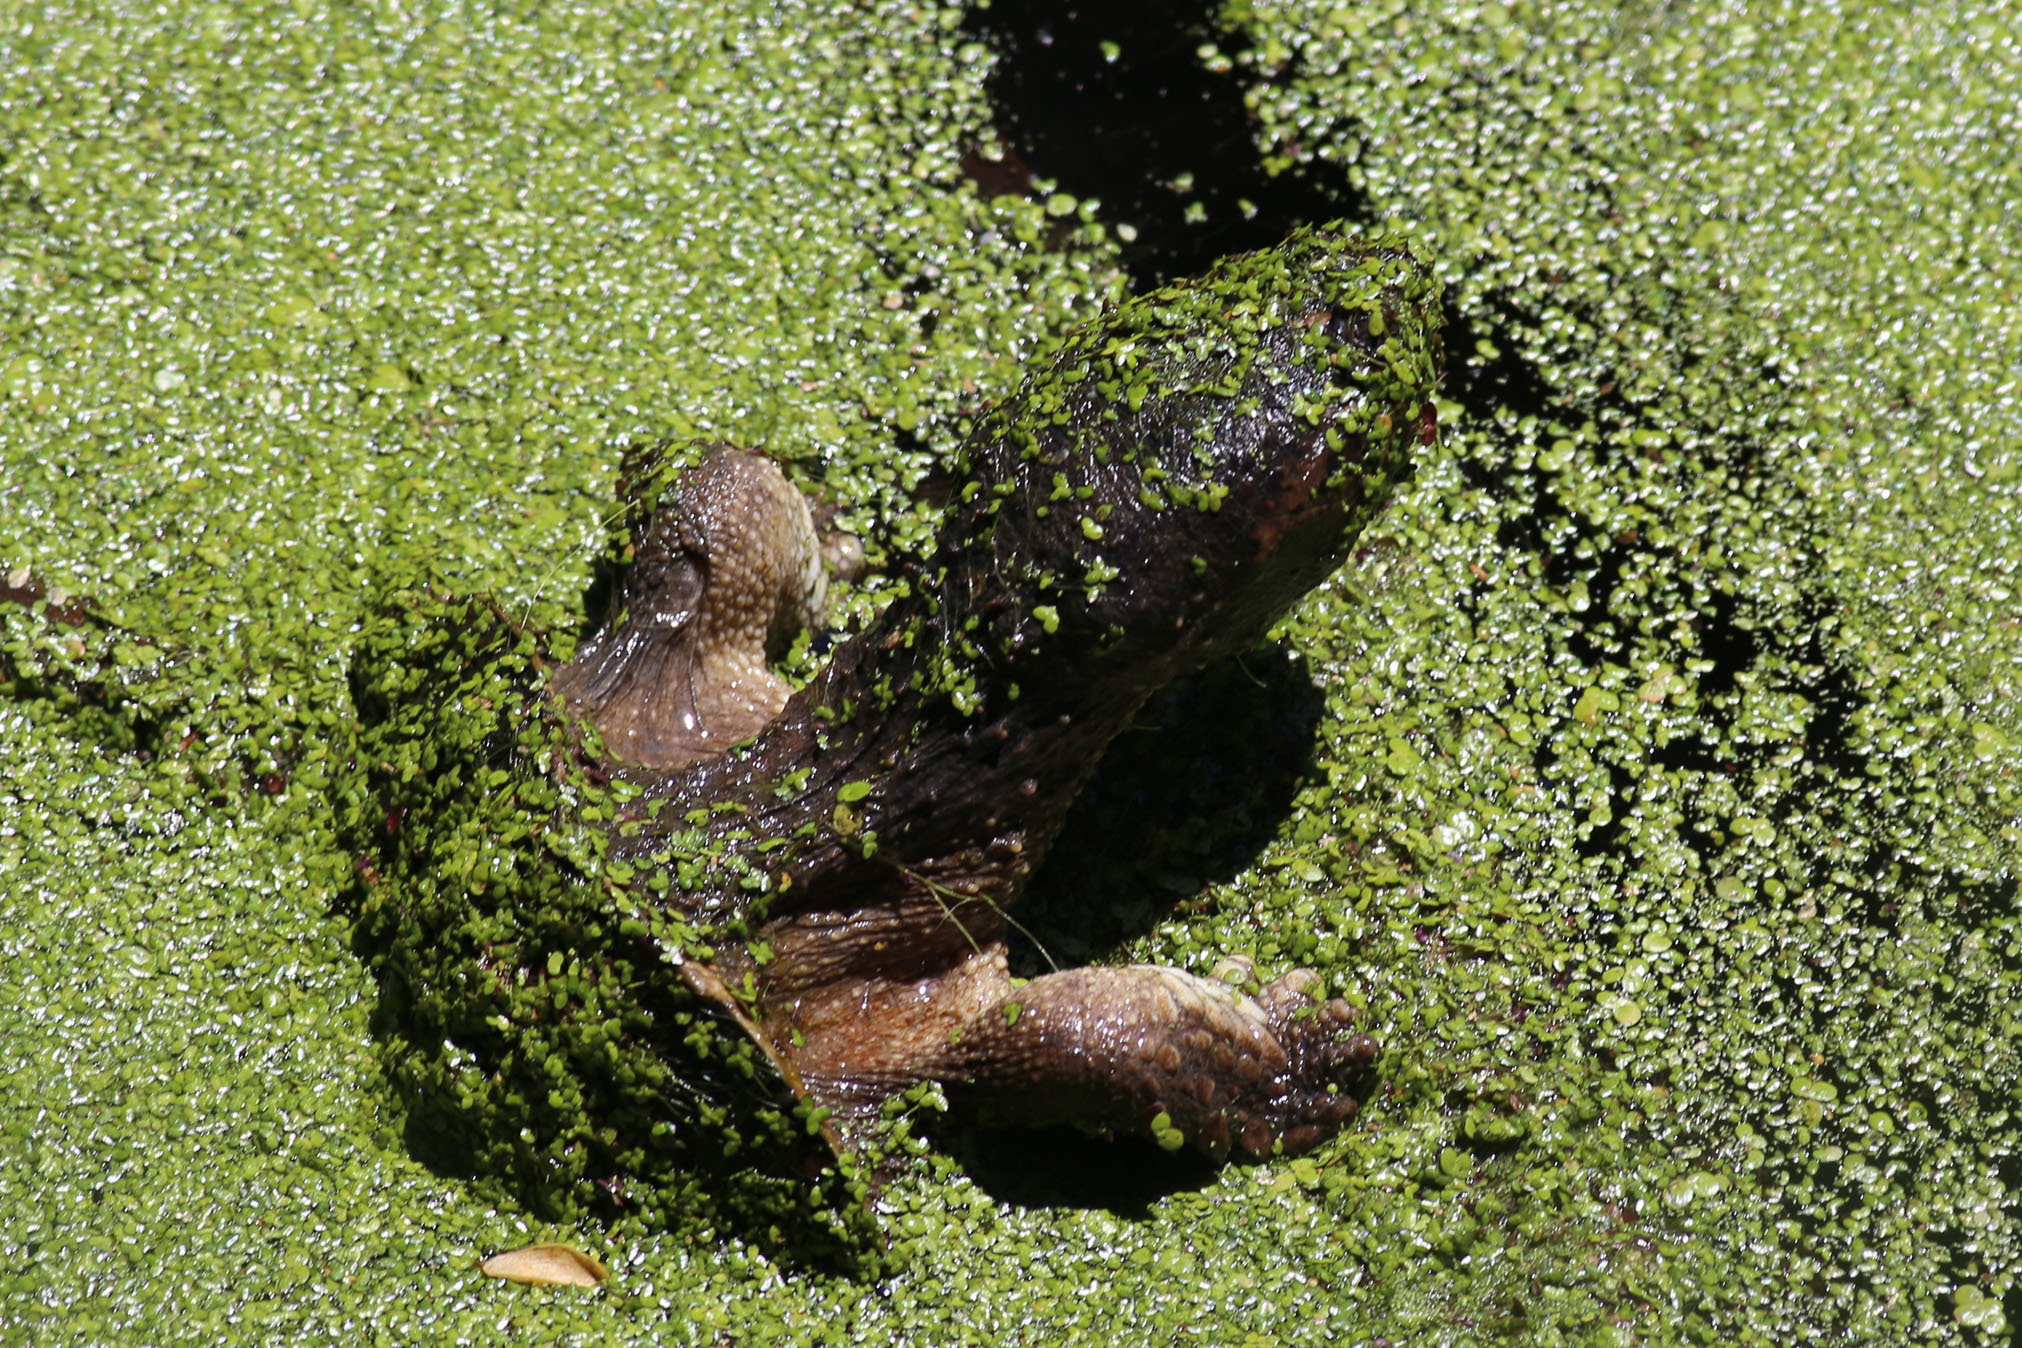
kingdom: Animalia
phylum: Chordata
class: Testudines
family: Chelydridae
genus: Chelydra
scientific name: Chelydra serpentina
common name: Common snapping turtle
